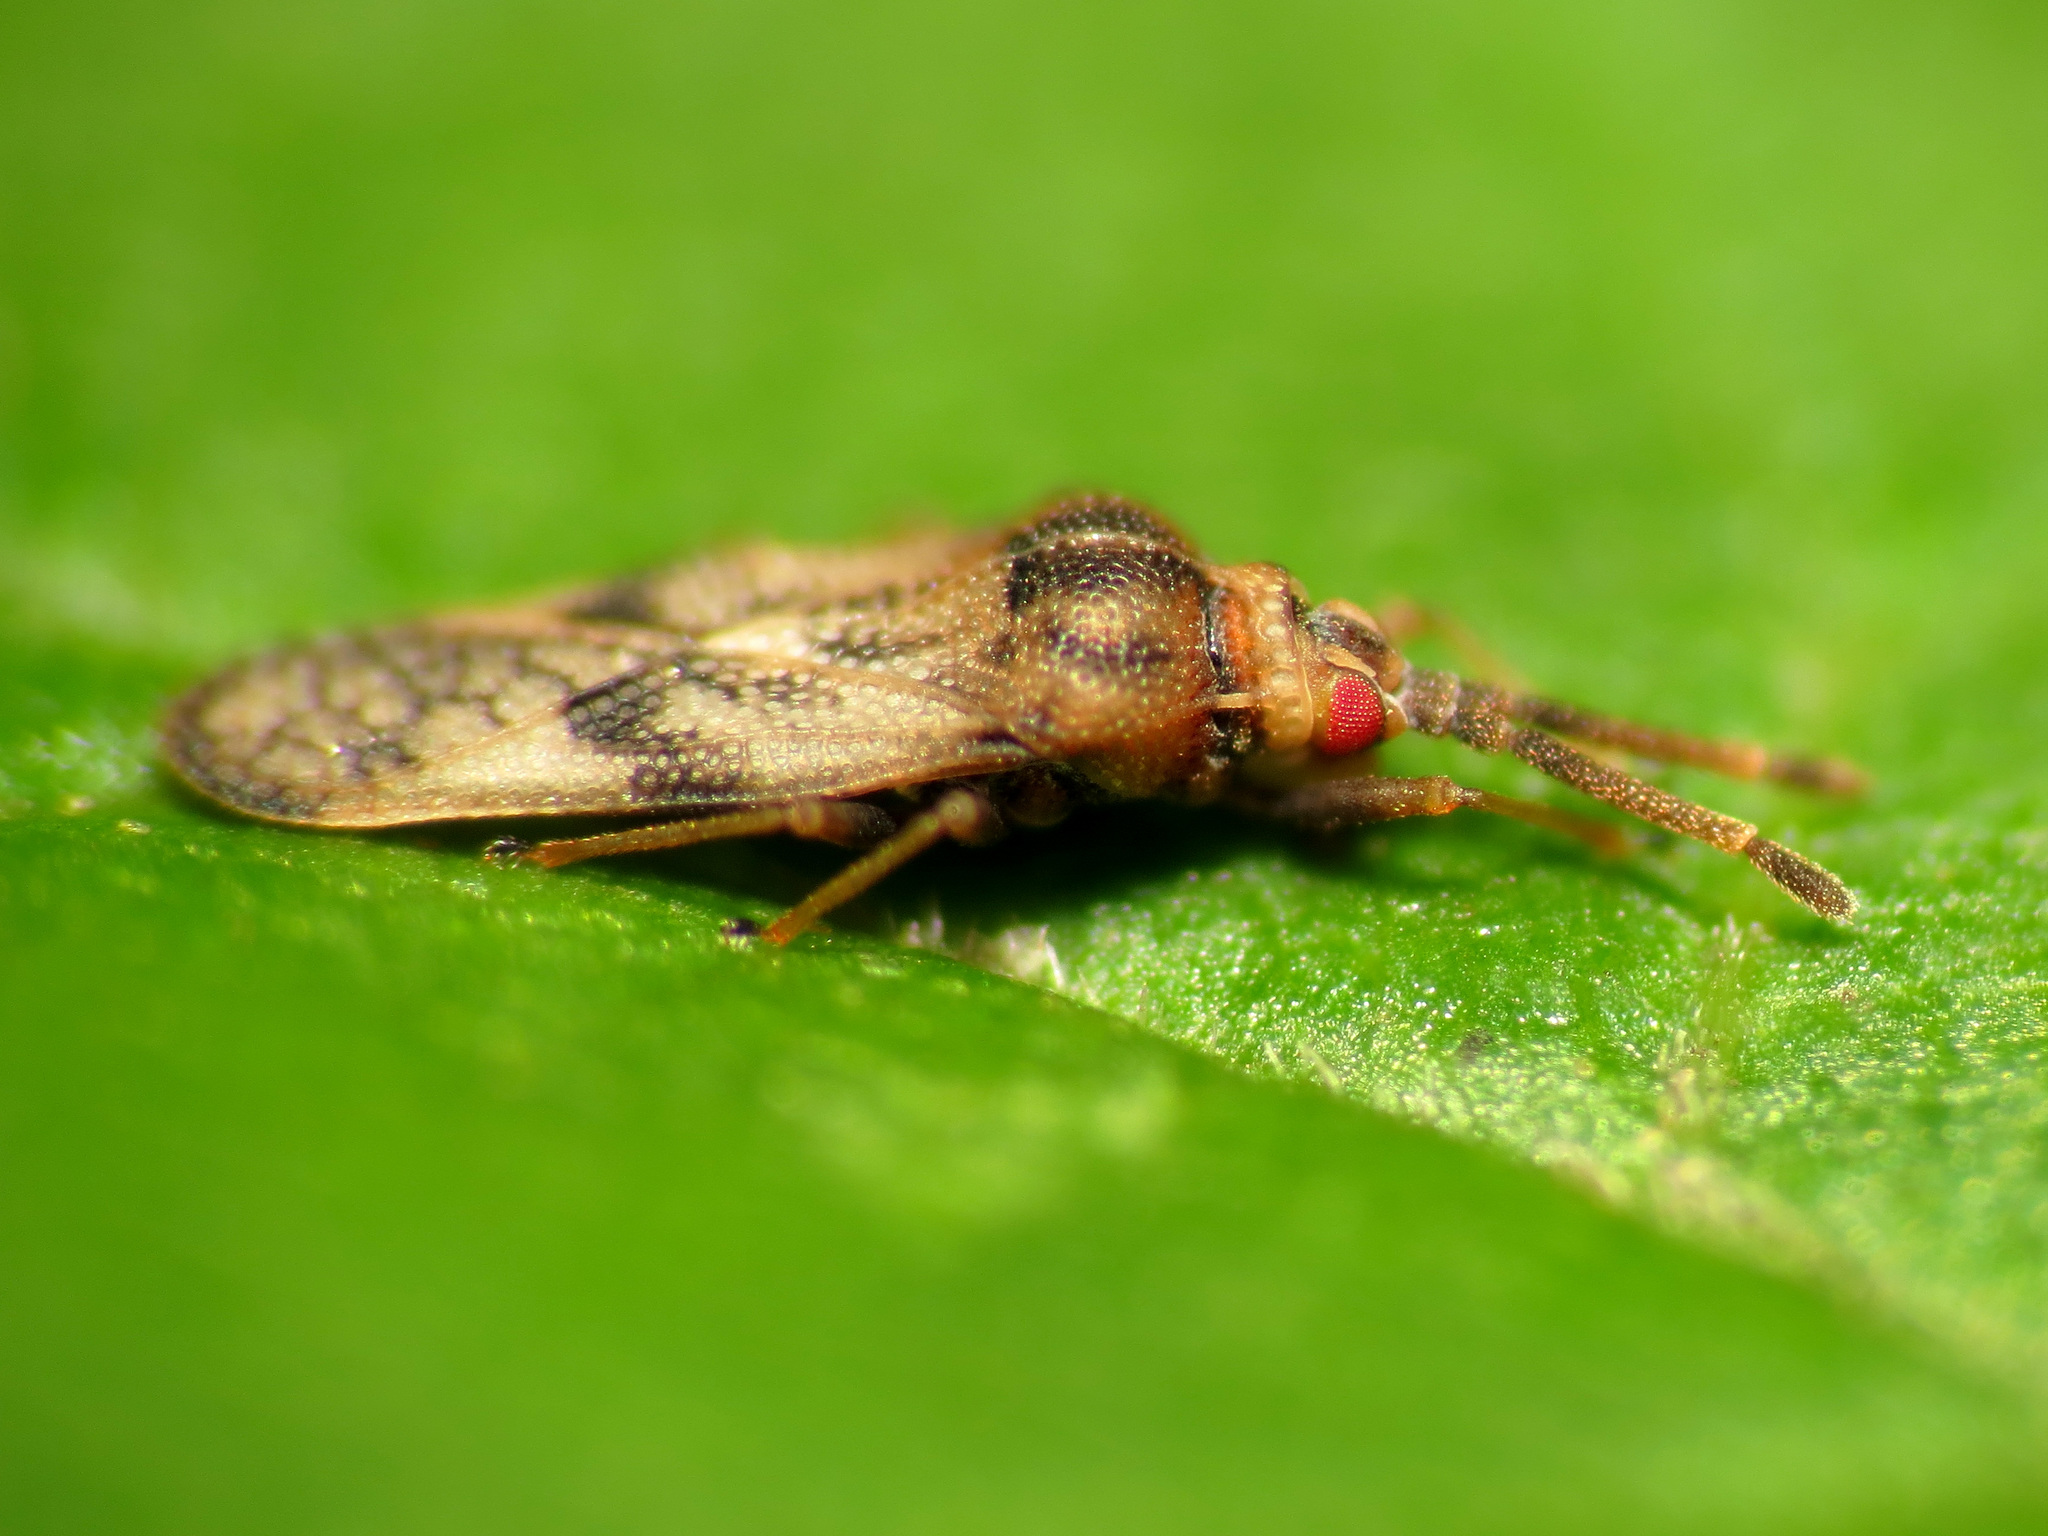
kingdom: Animalia
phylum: Arthropoda
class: Insecta
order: Hemiptera
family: Tingidae
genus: Leptoypha
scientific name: Leptoypha mutica
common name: Fringetree lace bug
